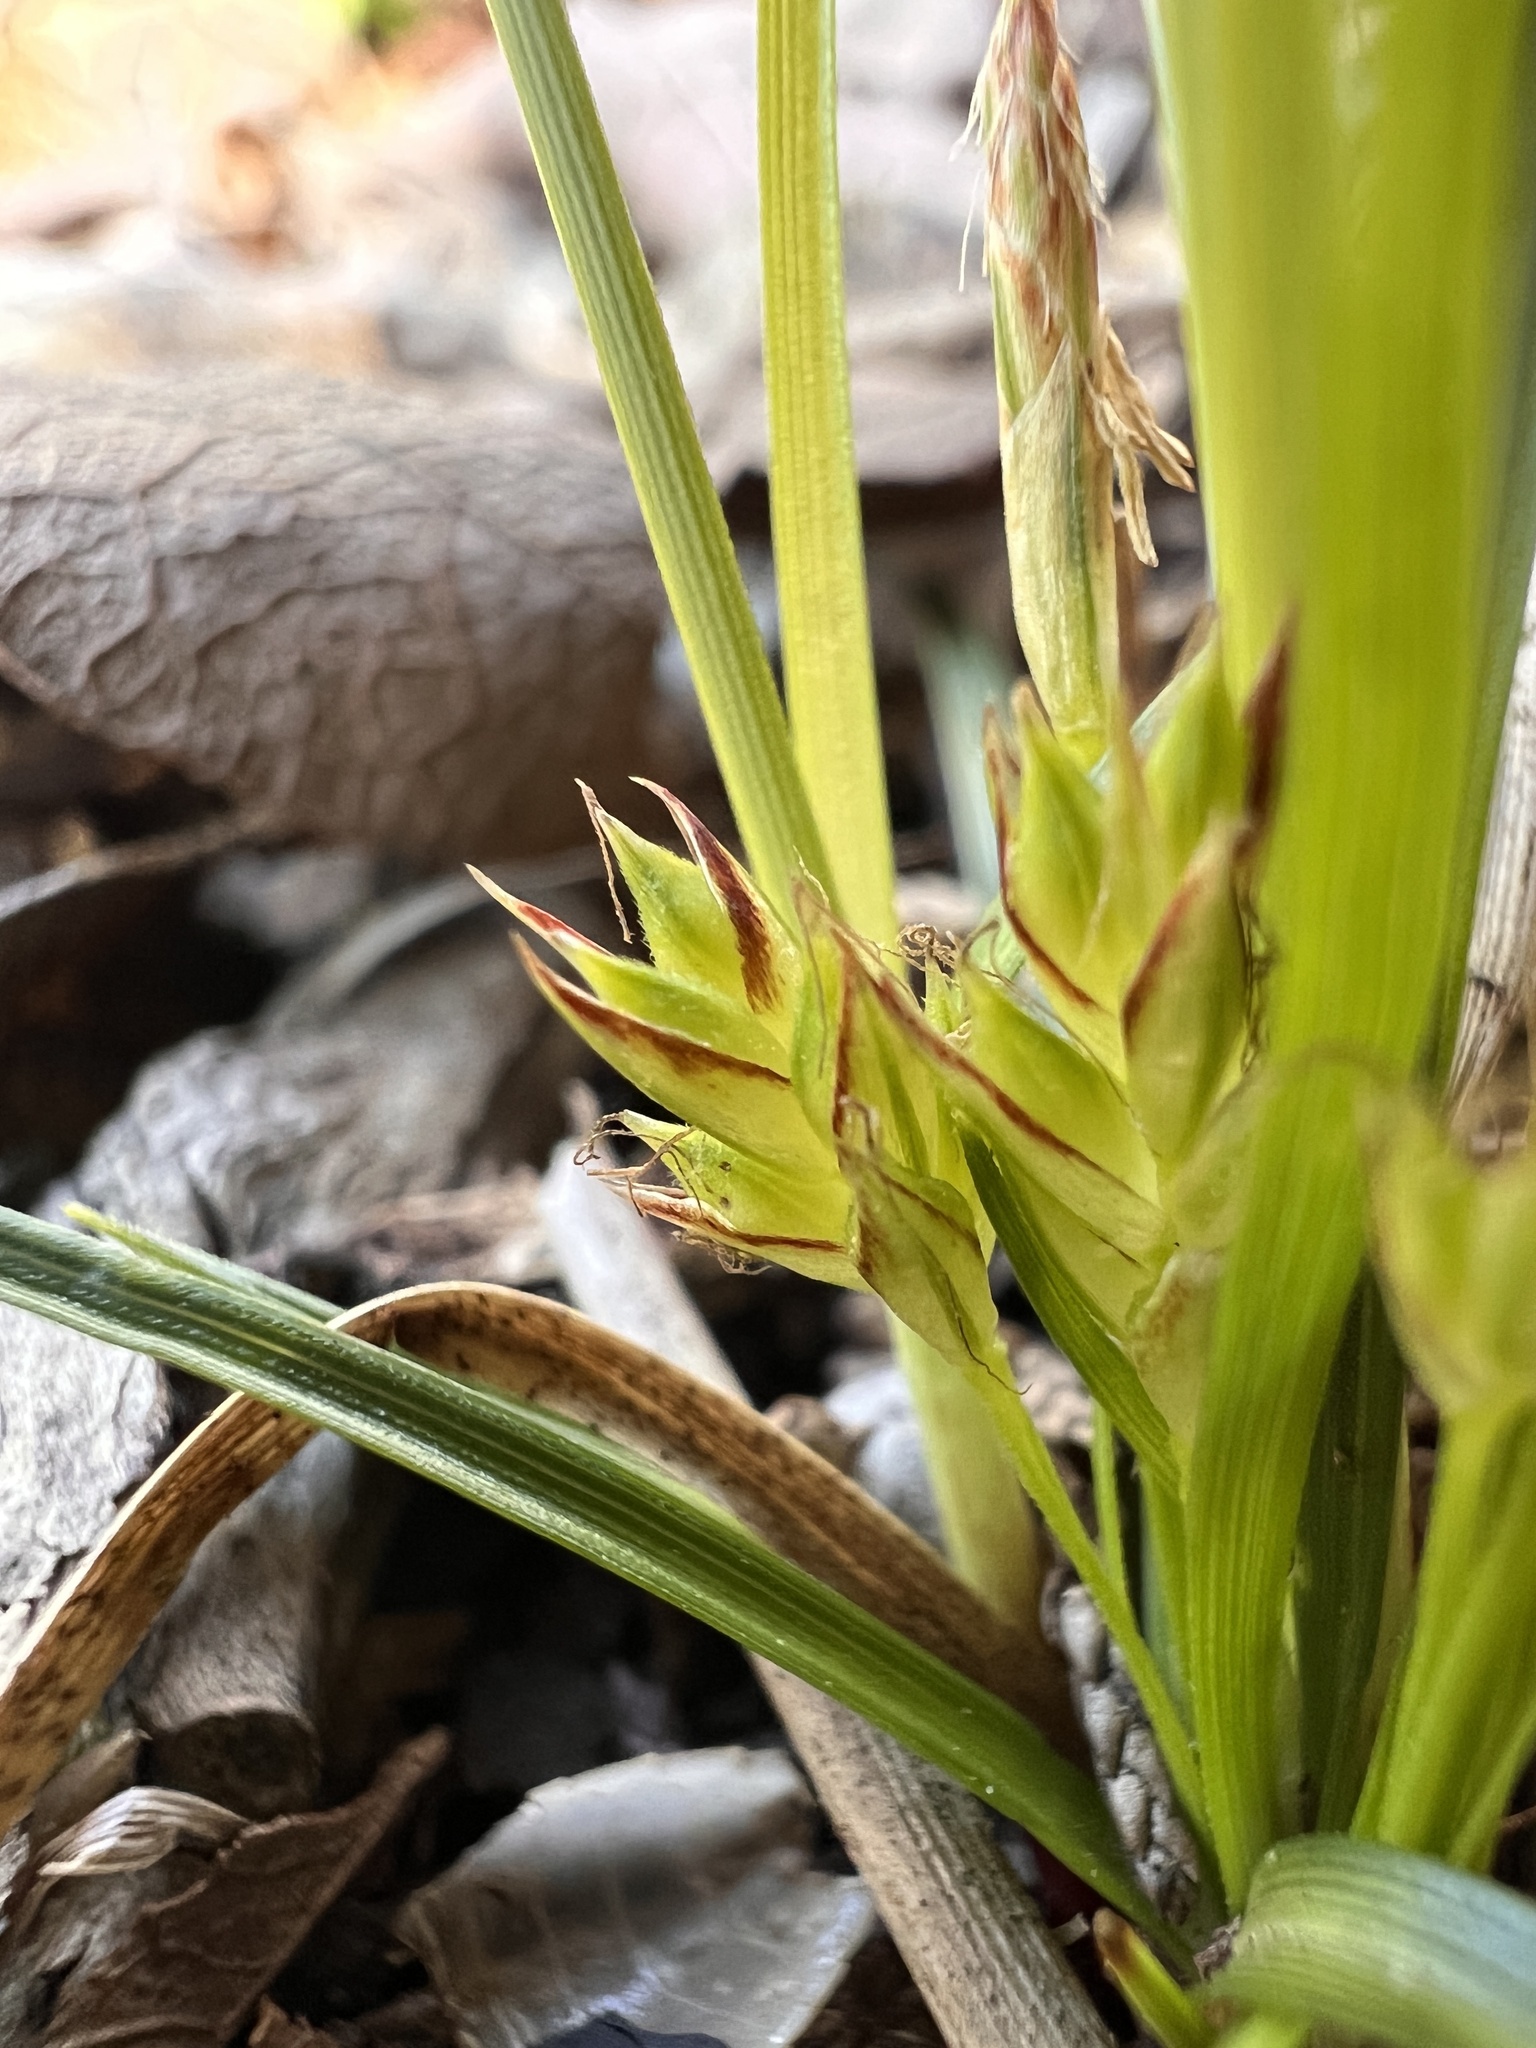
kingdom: Plantae
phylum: Tracheophyta
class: Liliopsida
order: Poales
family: Cyperaceae
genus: Carex
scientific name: Carex umbellata
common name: Early oak sedge
